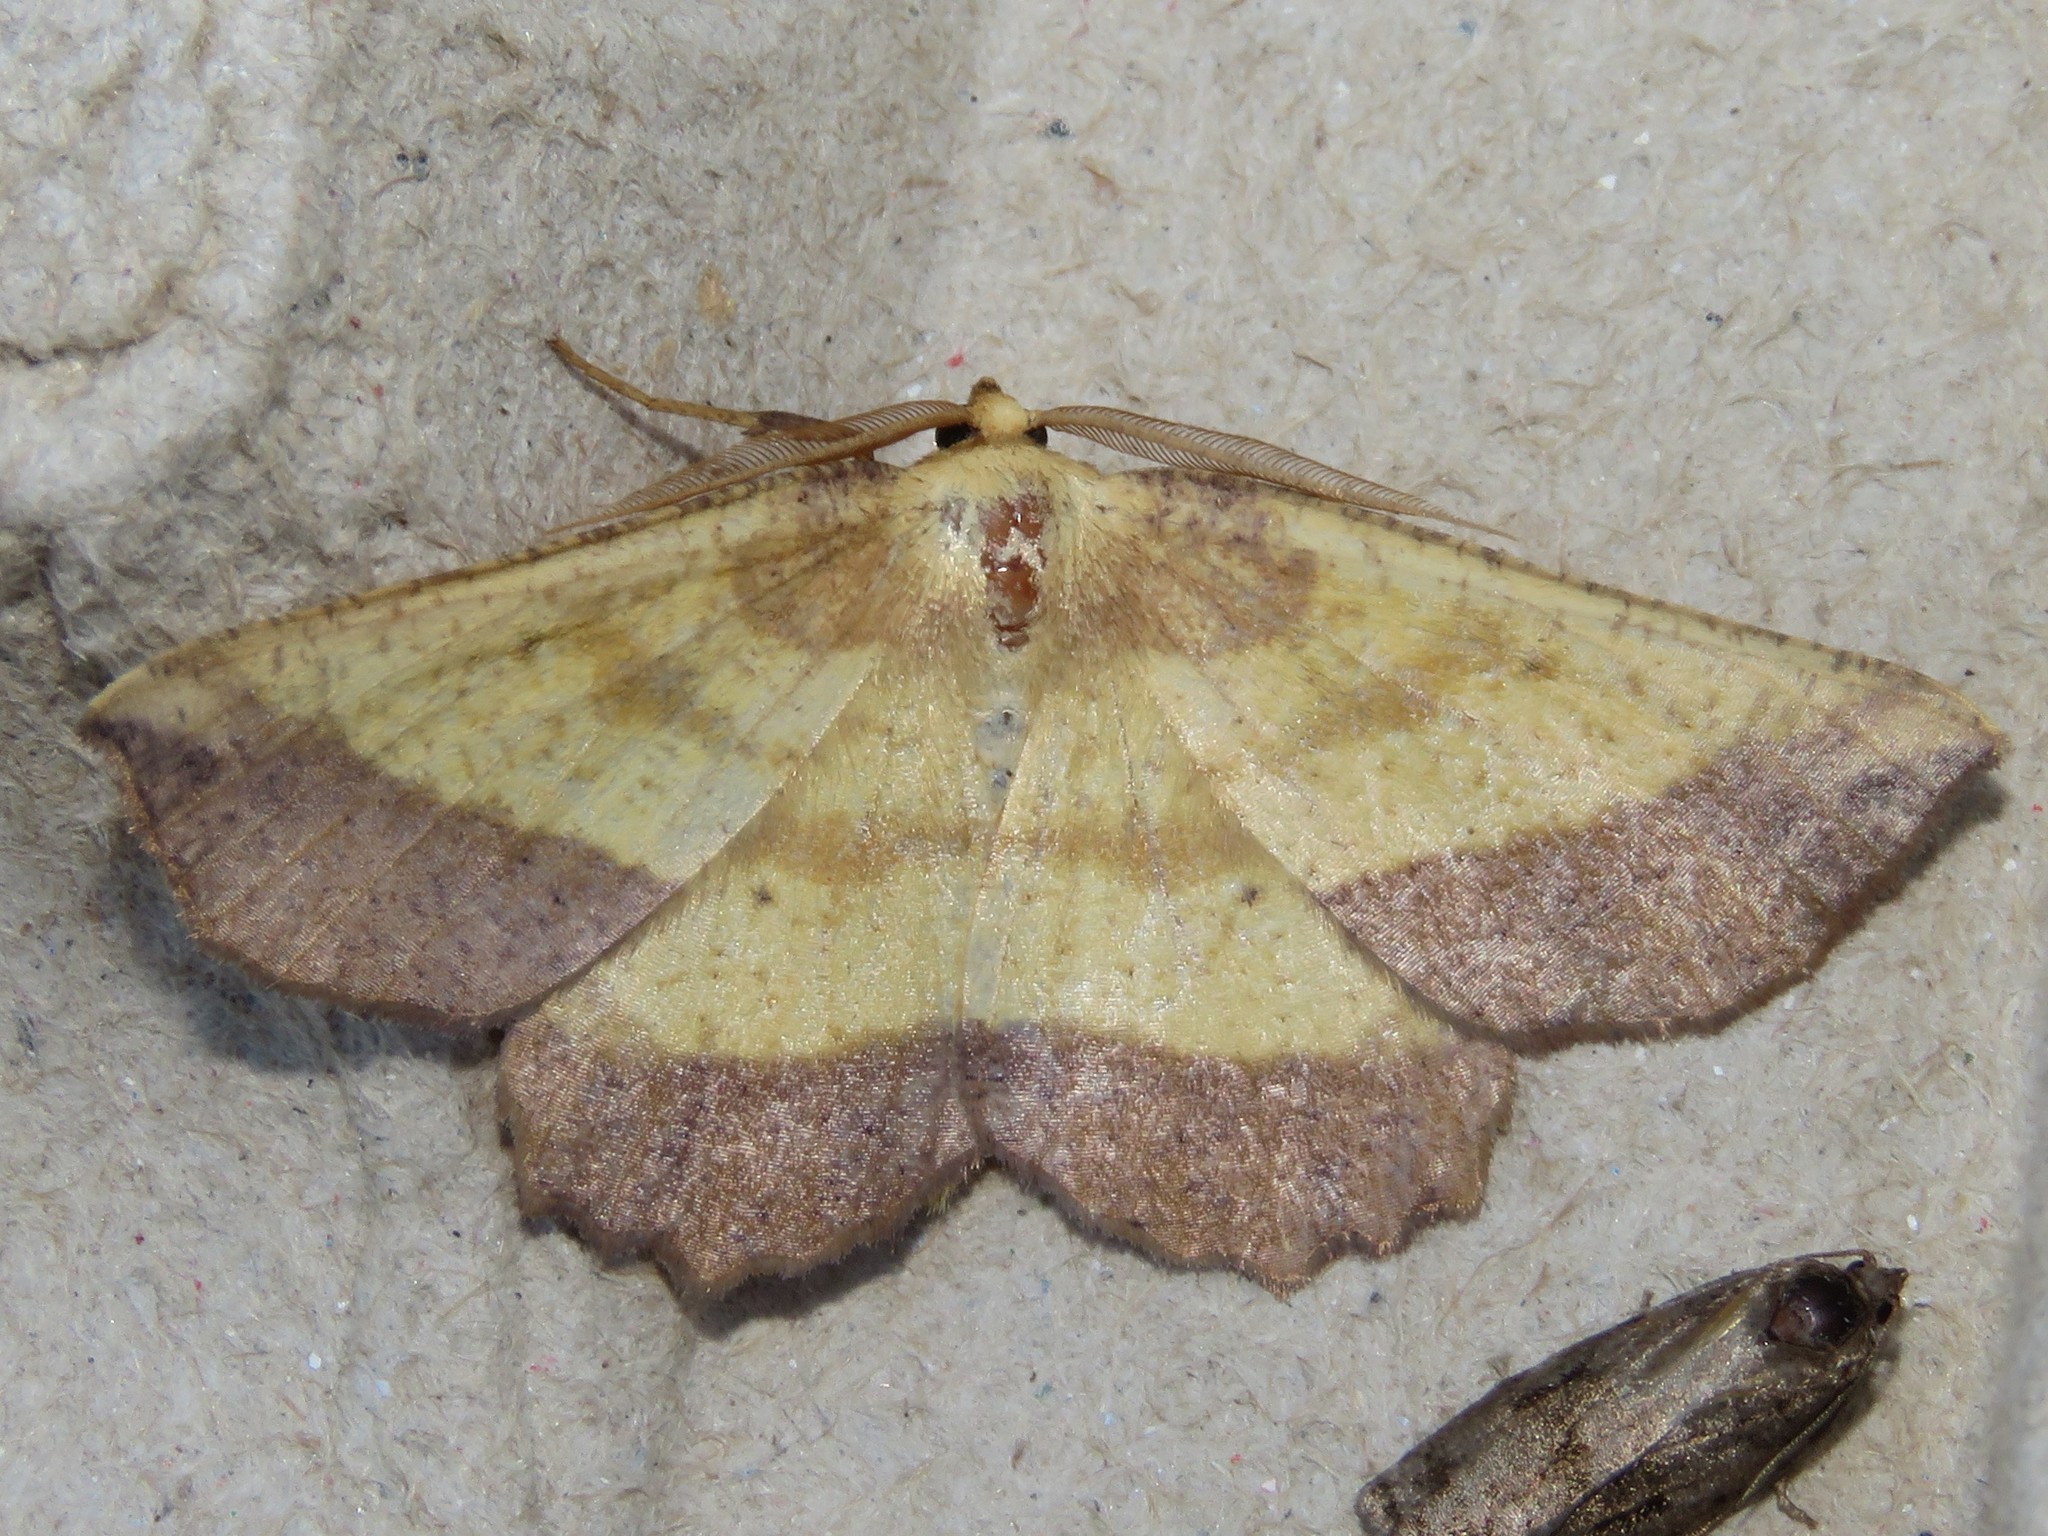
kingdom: Animalia
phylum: Arthropoda
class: Insecta
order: Lepidoptera
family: Geometridae
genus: Euchlaena
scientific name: Euchlaena serrata
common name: Saw wing
